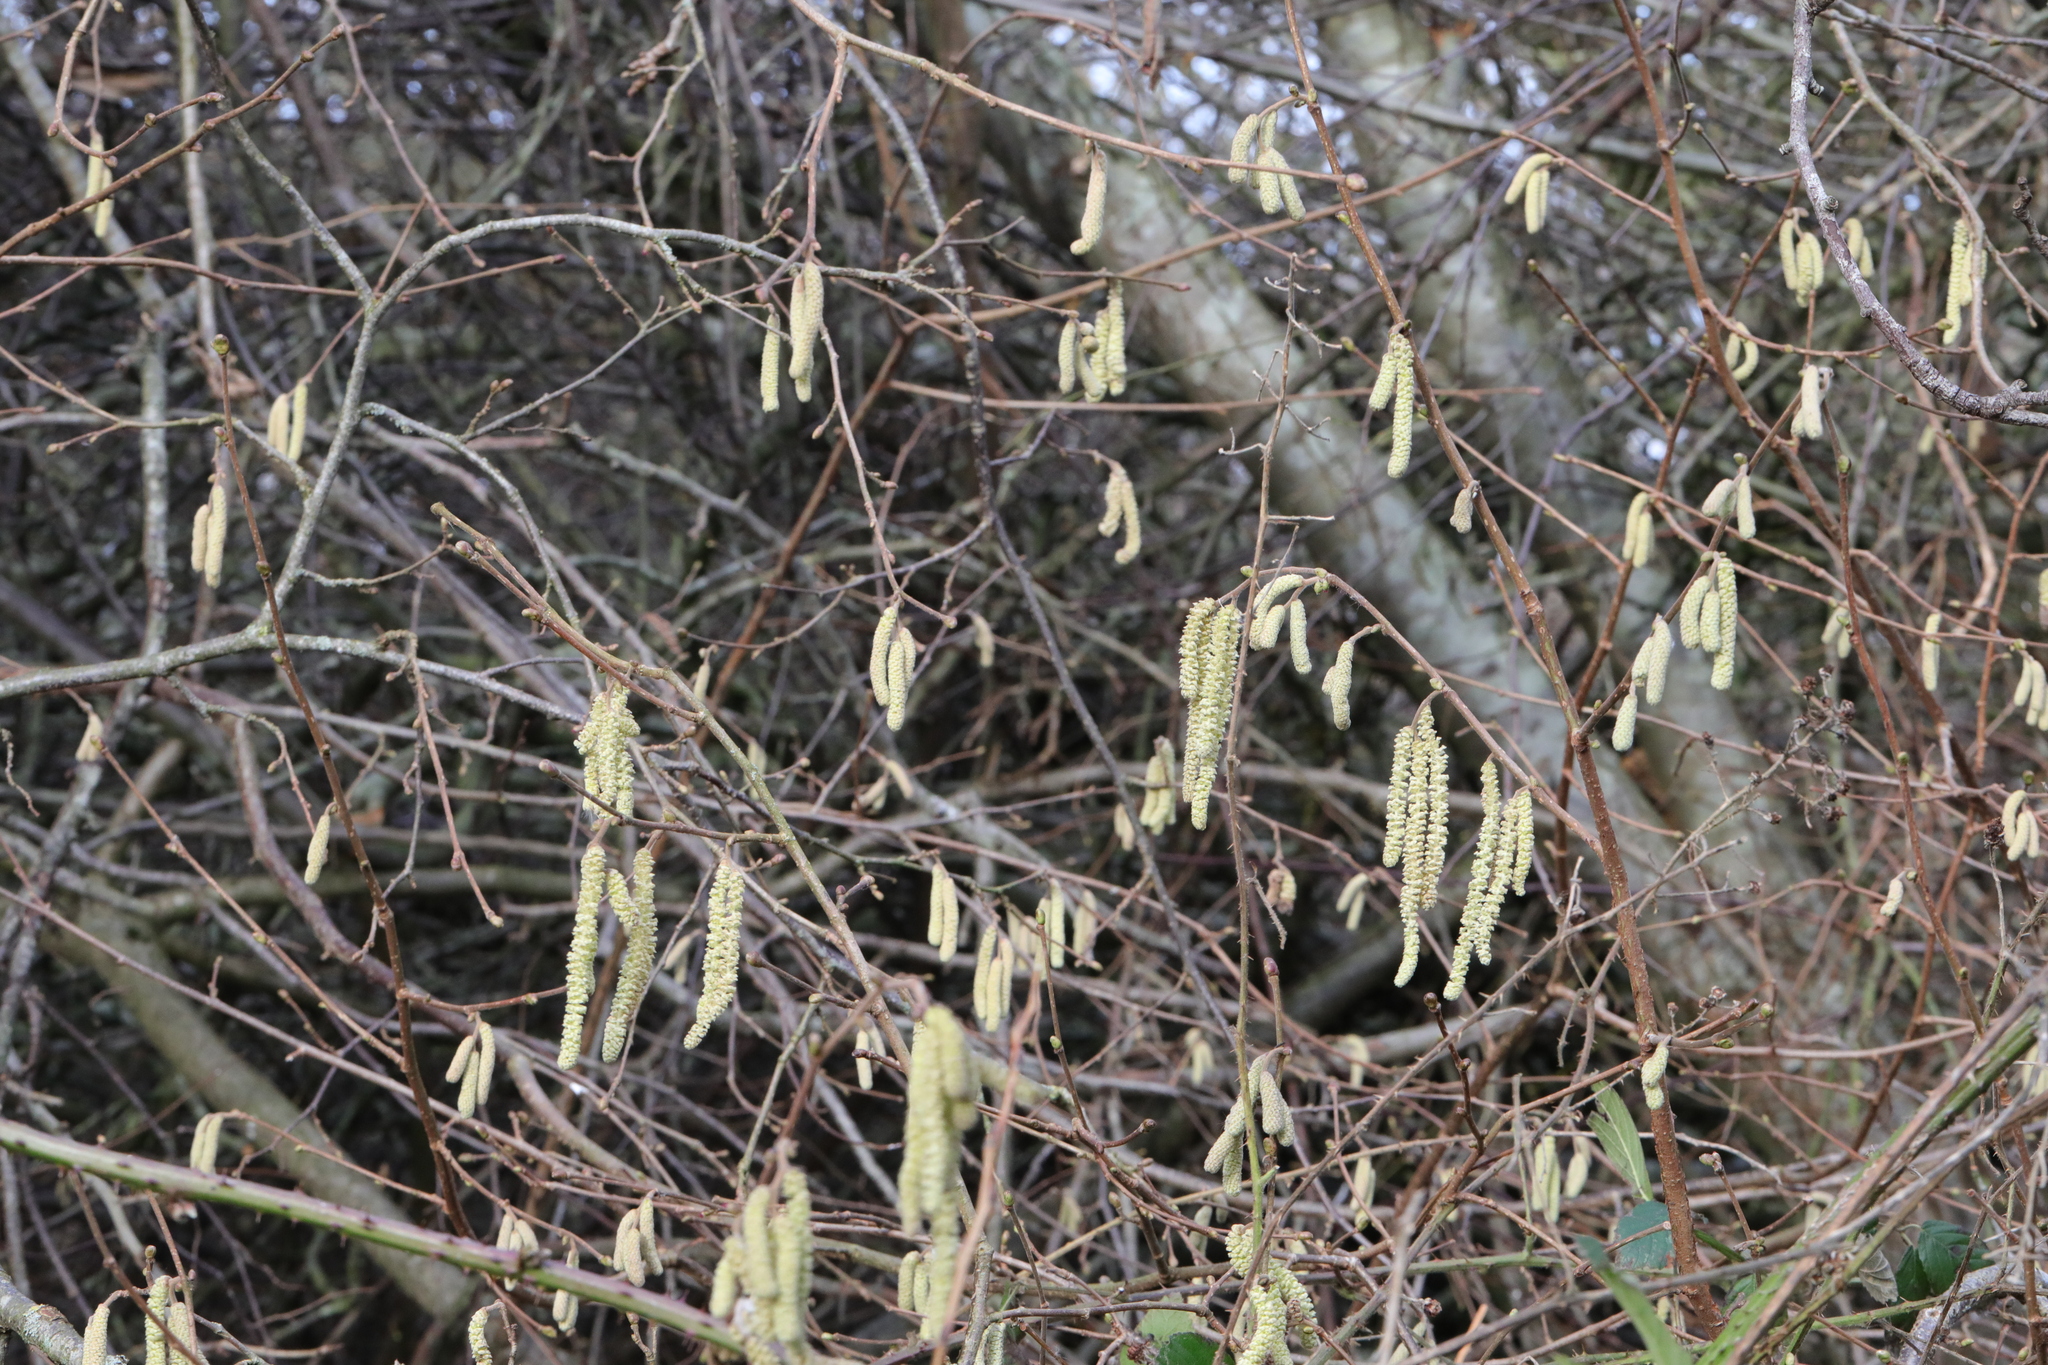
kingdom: Plantae
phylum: Tracheophyta
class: Magnoliopsida
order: Fagales
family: Betulaceae
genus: Corylus
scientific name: Corylus avellana
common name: European hazel
